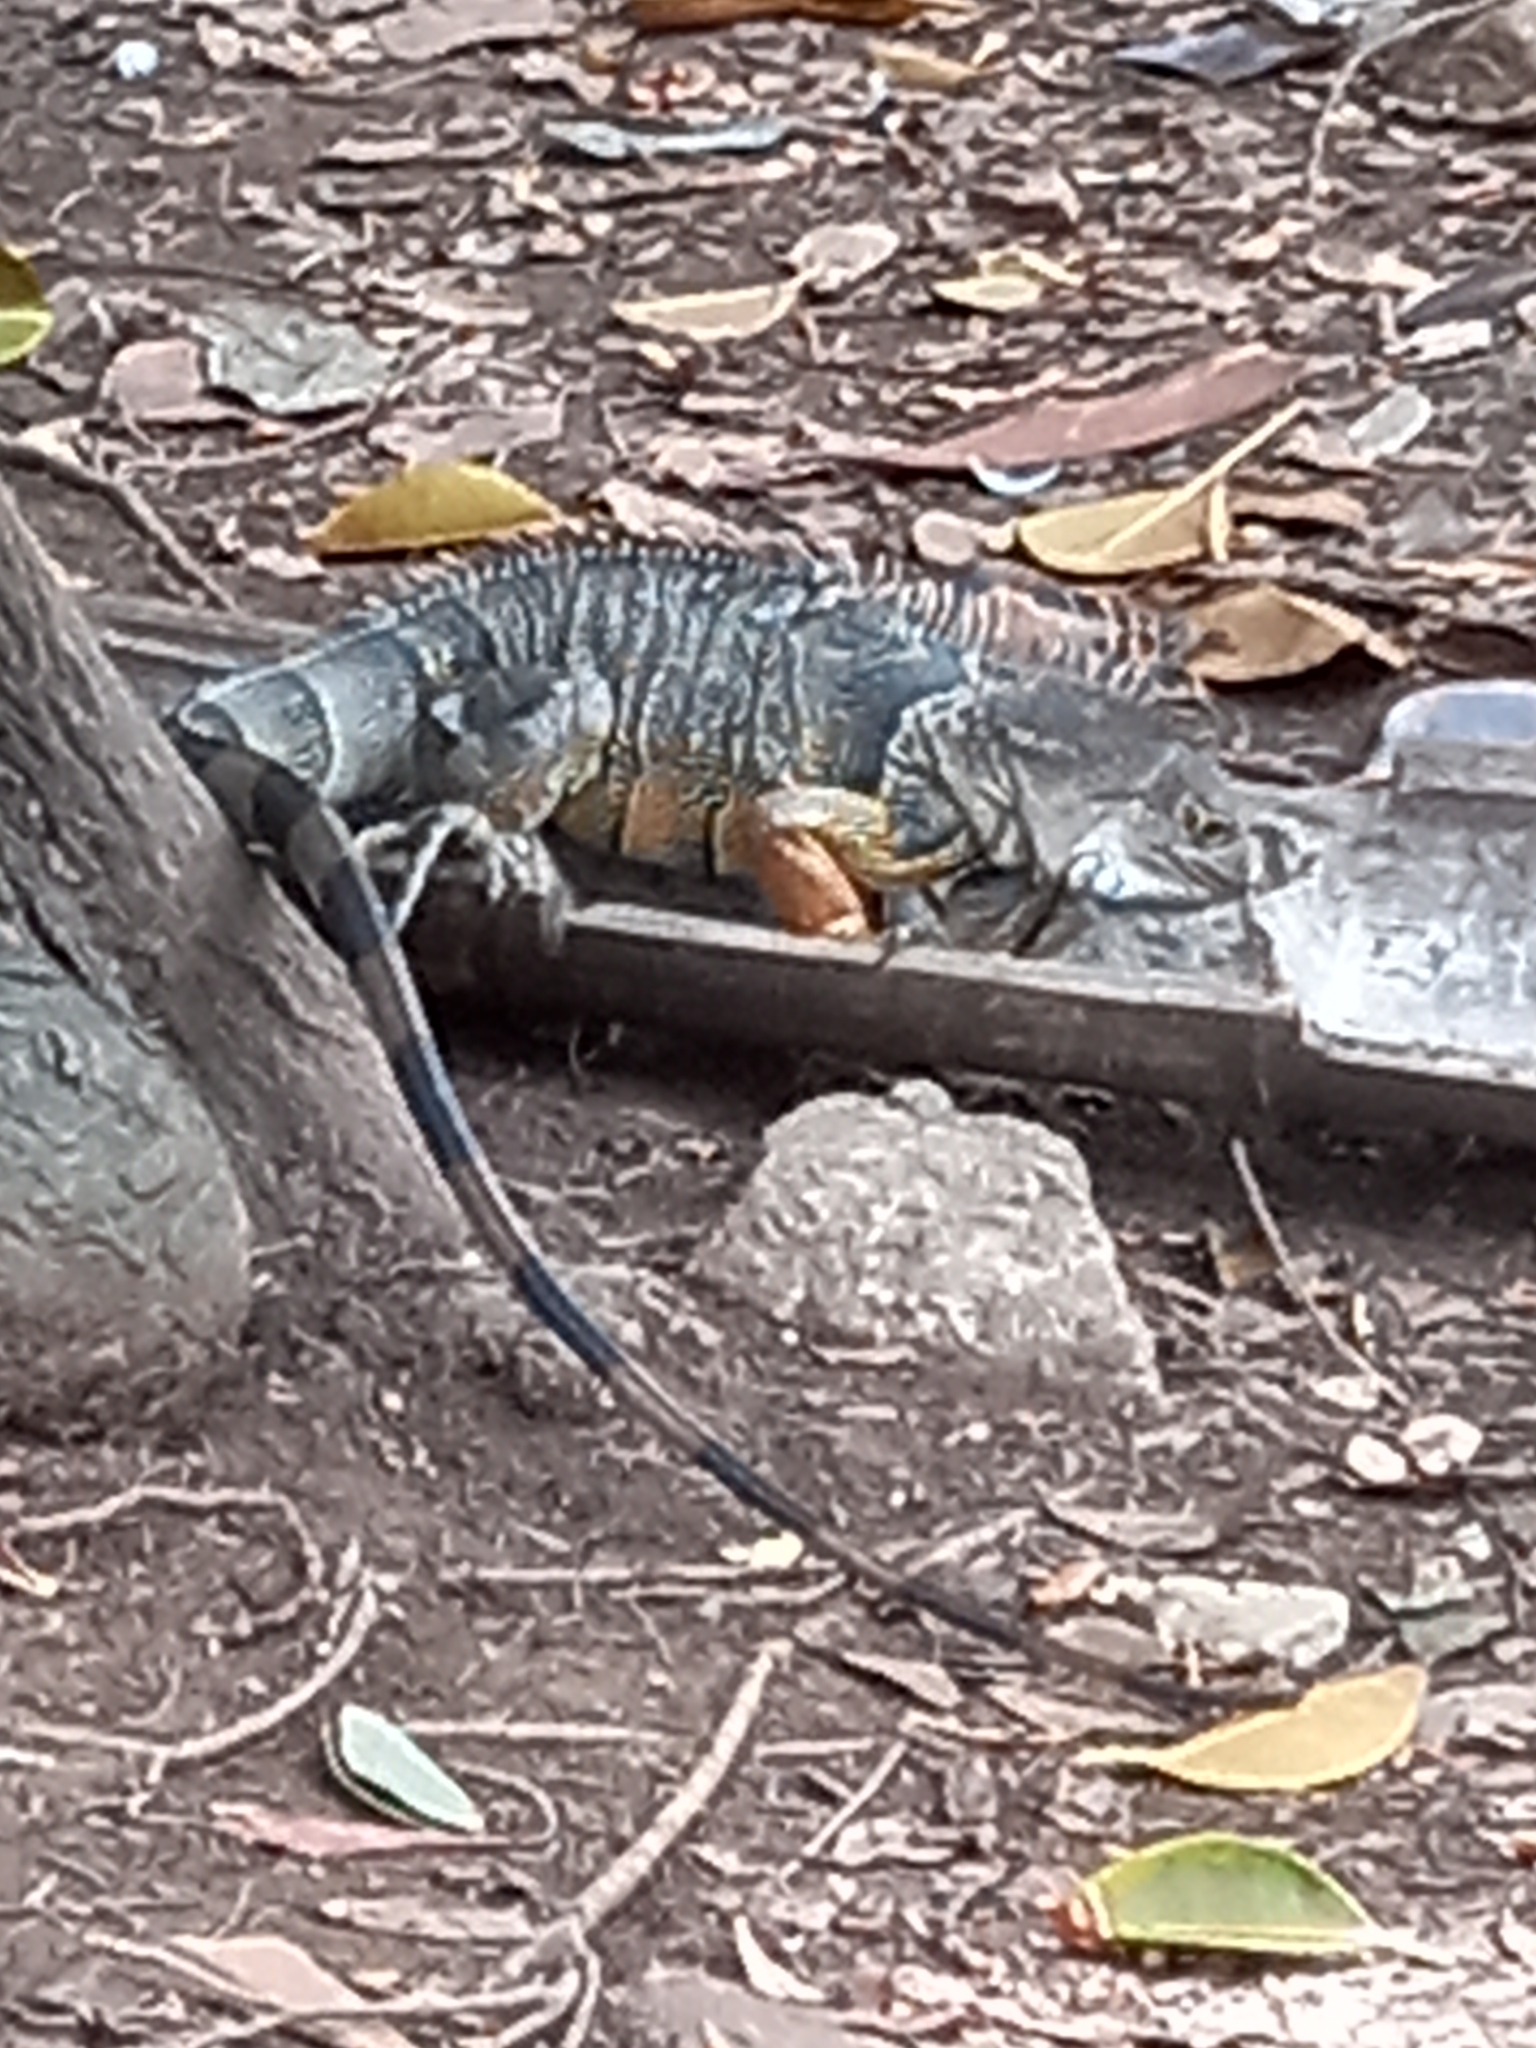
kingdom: Animalia
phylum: Chordata
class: Squamata
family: Iguanidae
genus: Iguana
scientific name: Iguana iguana
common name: Green iguana
